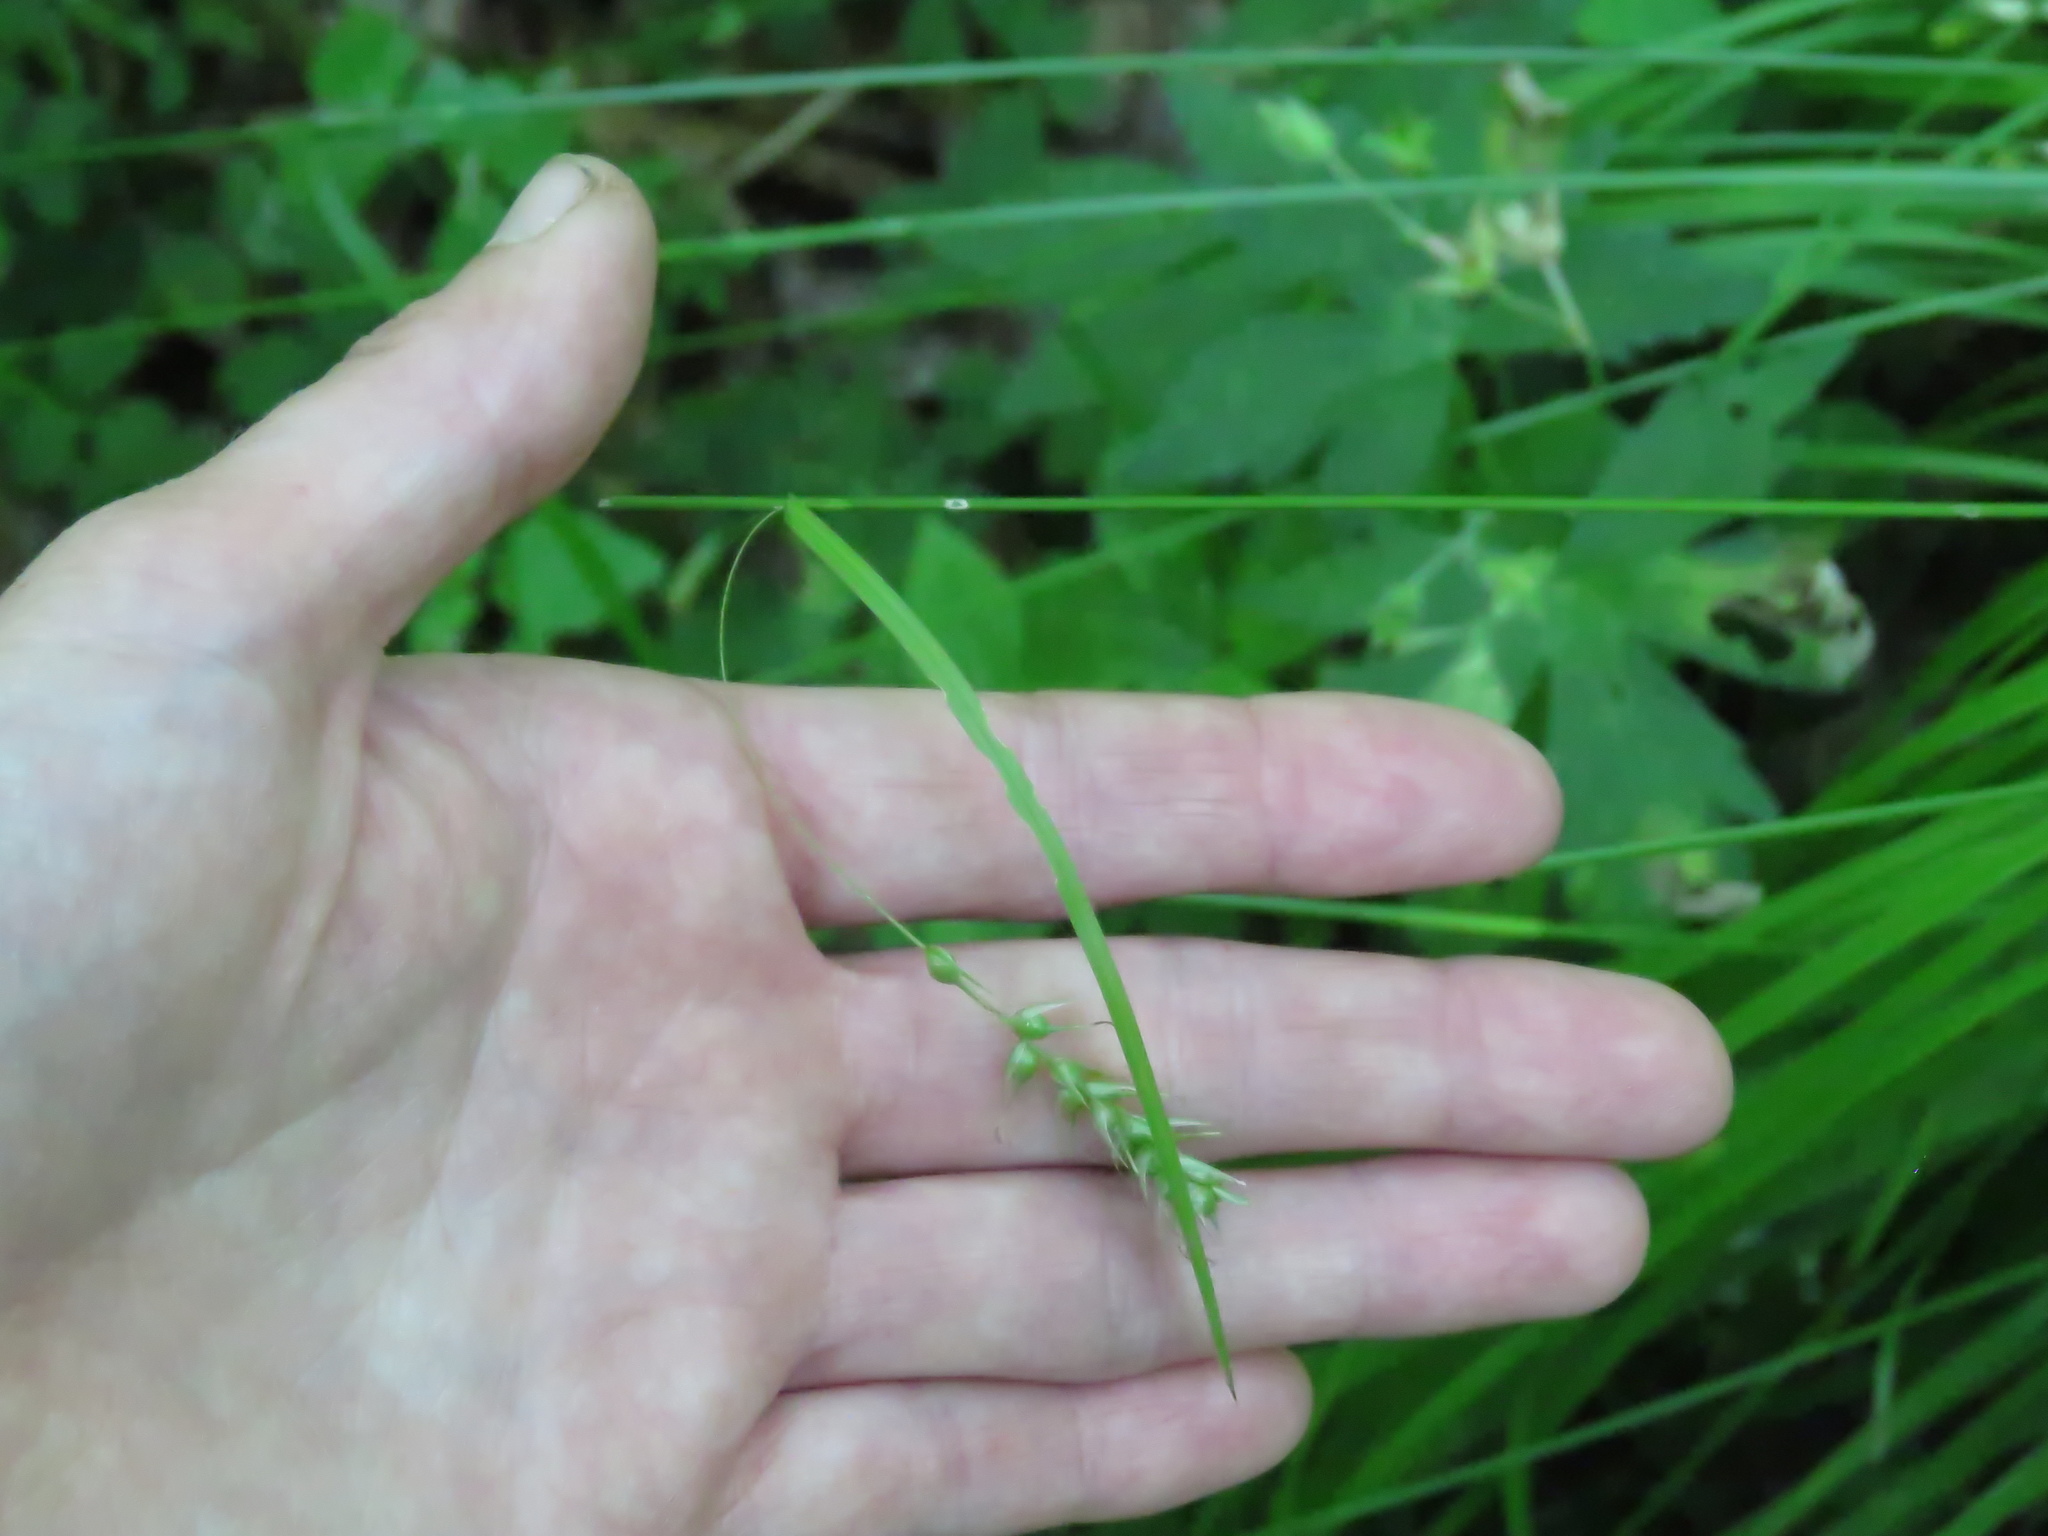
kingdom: Plantae
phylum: Tracheophyta
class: Liliopsida
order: Poales
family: Cyperaceae
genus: Carex
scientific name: Carex sprengelii
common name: Long-beaked sedge
